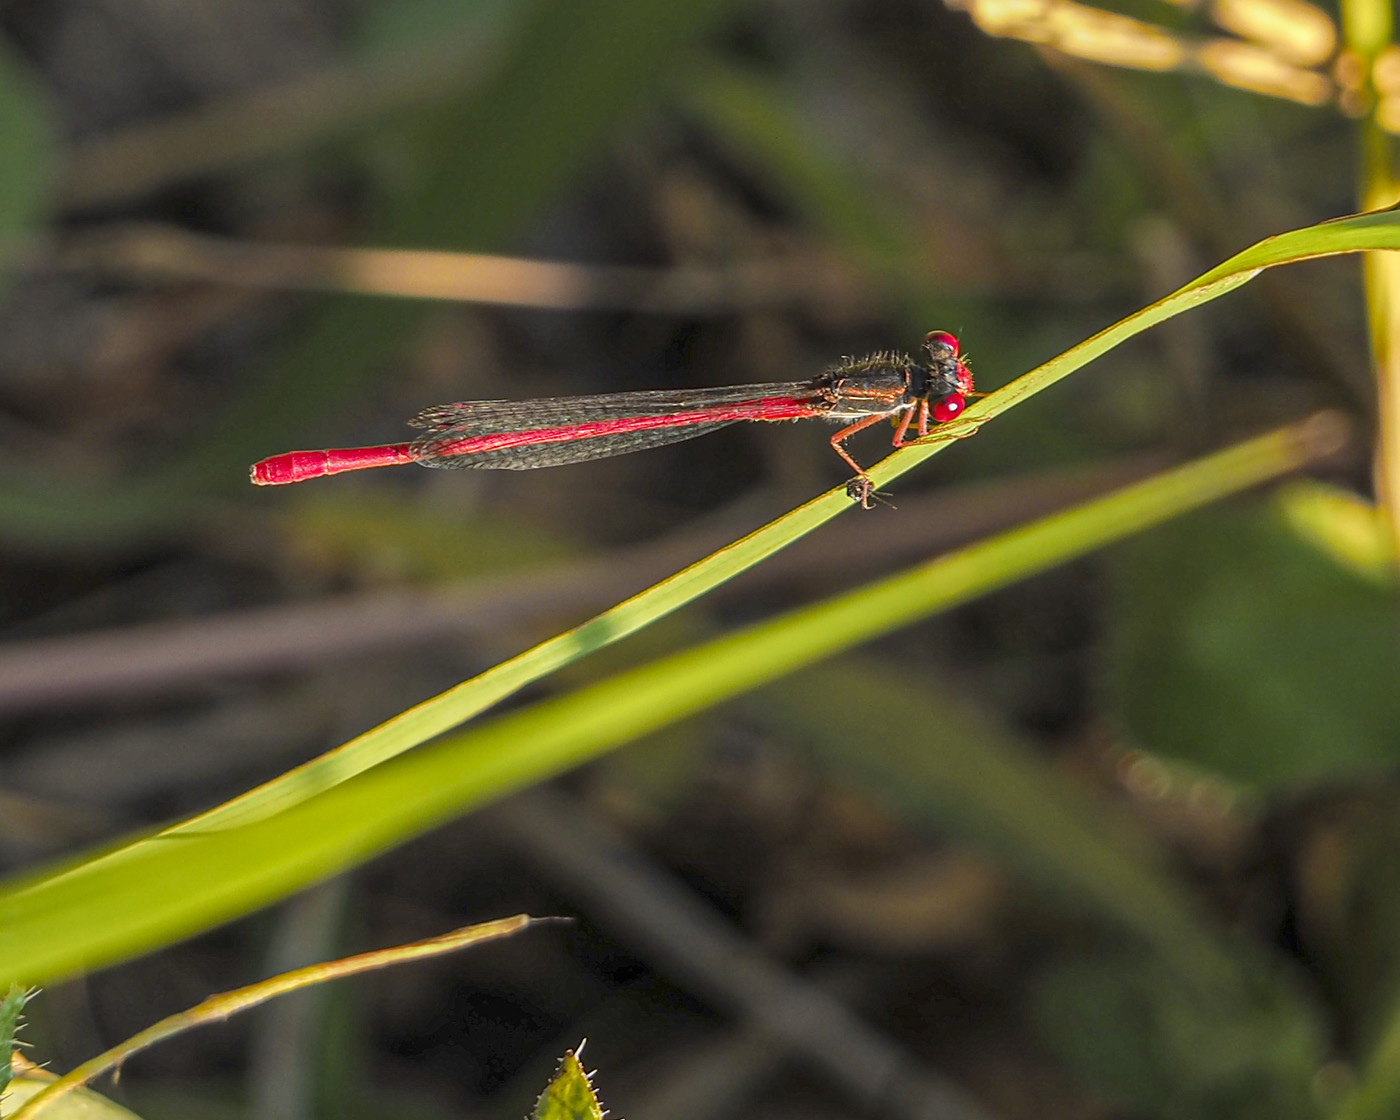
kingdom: Animalia
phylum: Arthropoda
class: Insecta
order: Odonata
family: Coenagrionidae
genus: Ceriagrion
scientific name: Ceriagrion tenellum
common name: Small red damselfly
